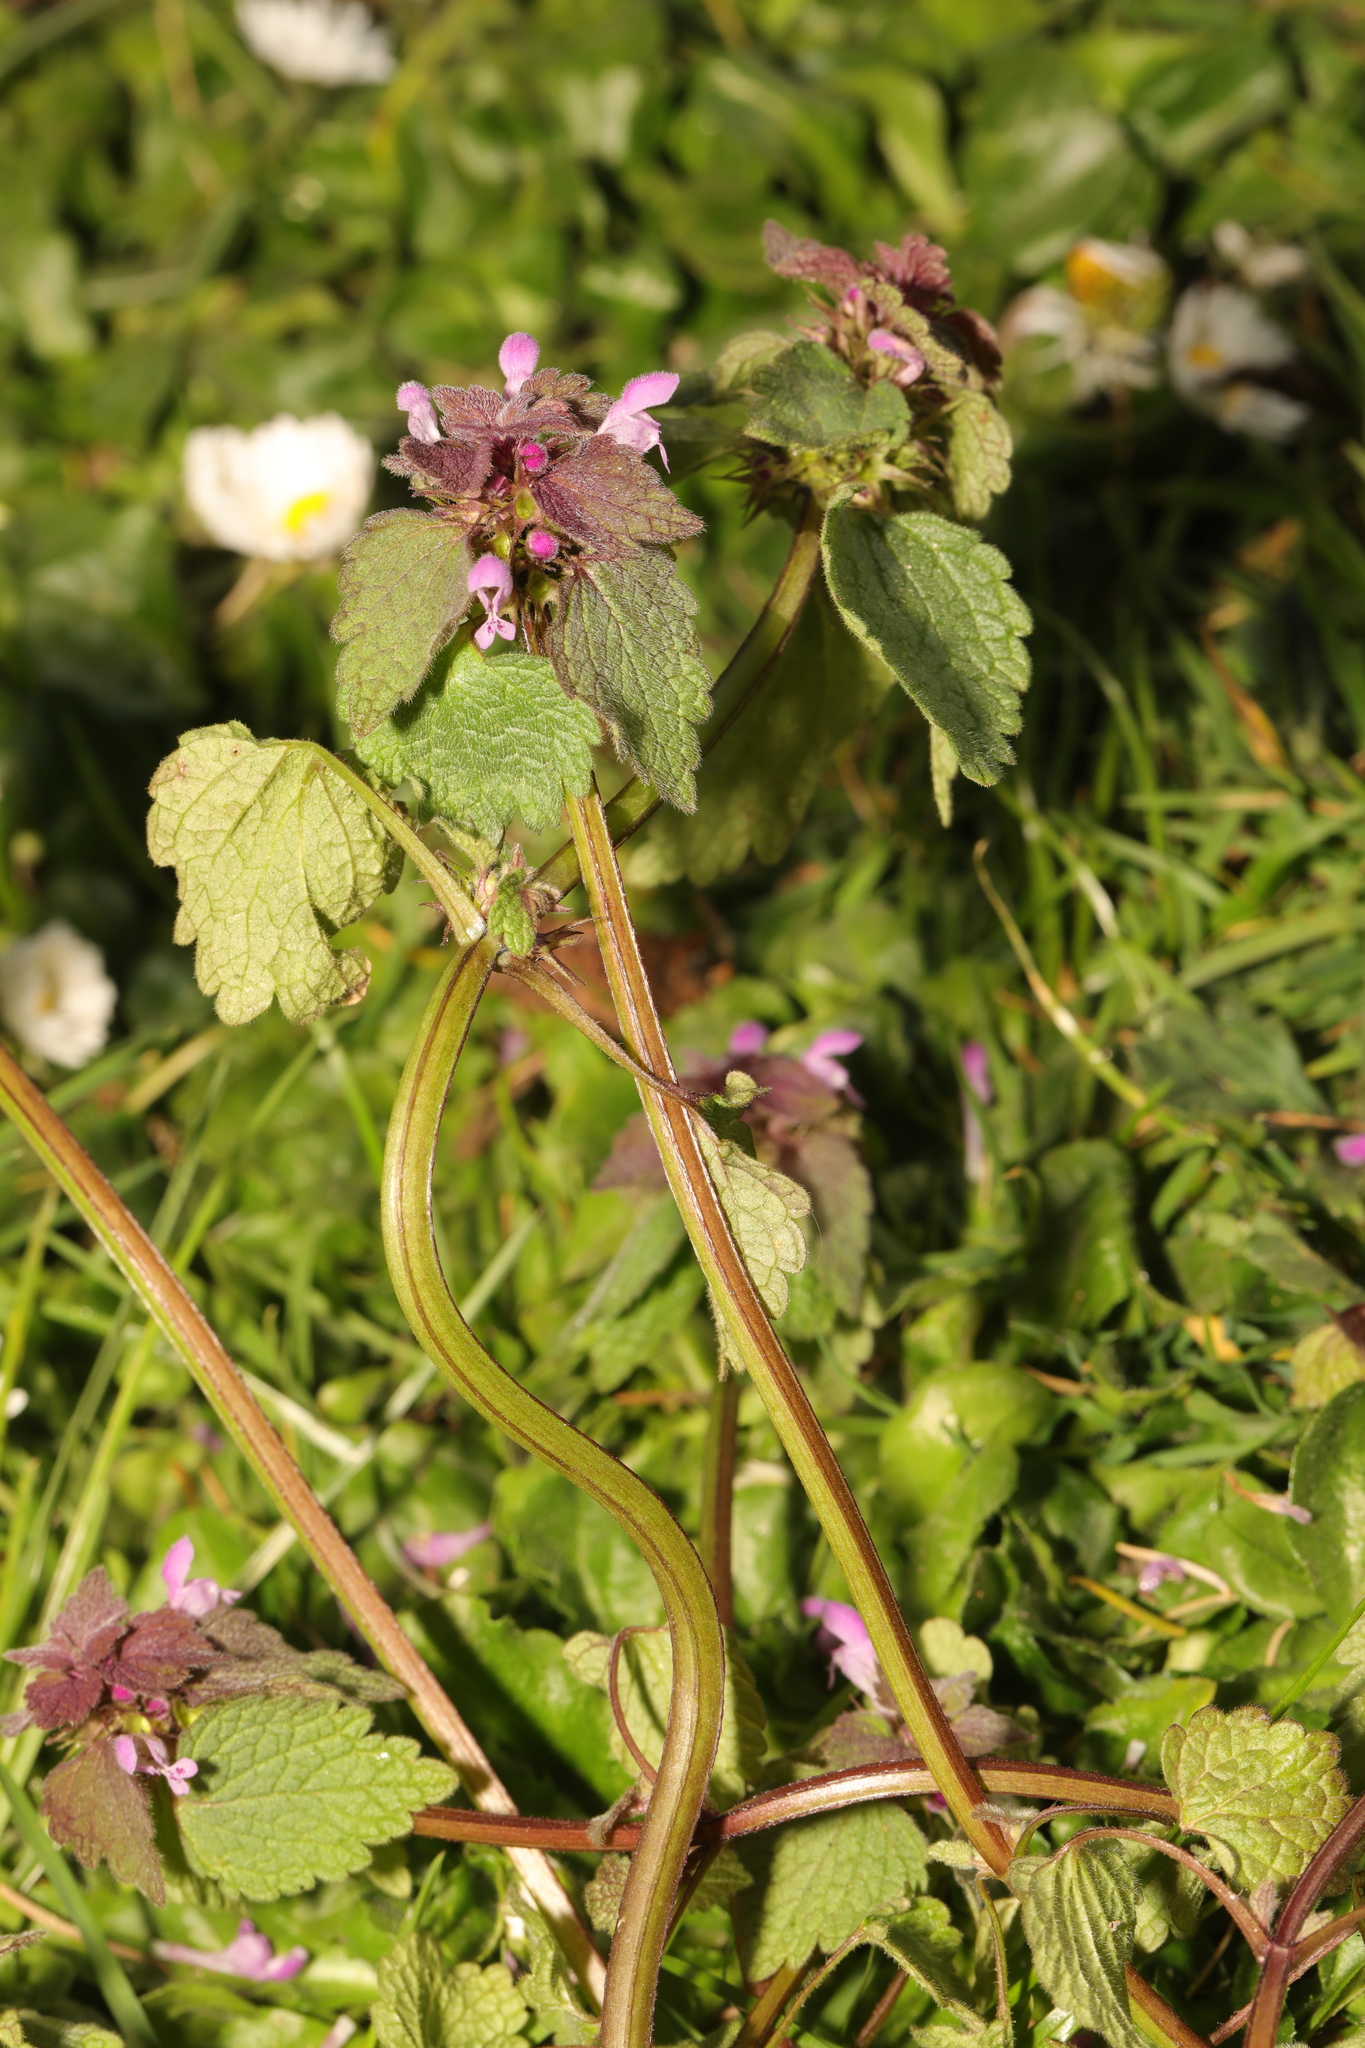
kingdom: Plantae
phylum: Tracheophyta
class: Magnoliopsida
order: Lamiales
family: Lamiaceae
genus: Lamium
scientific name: Lamium purpureum
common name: Red dead-nettle
